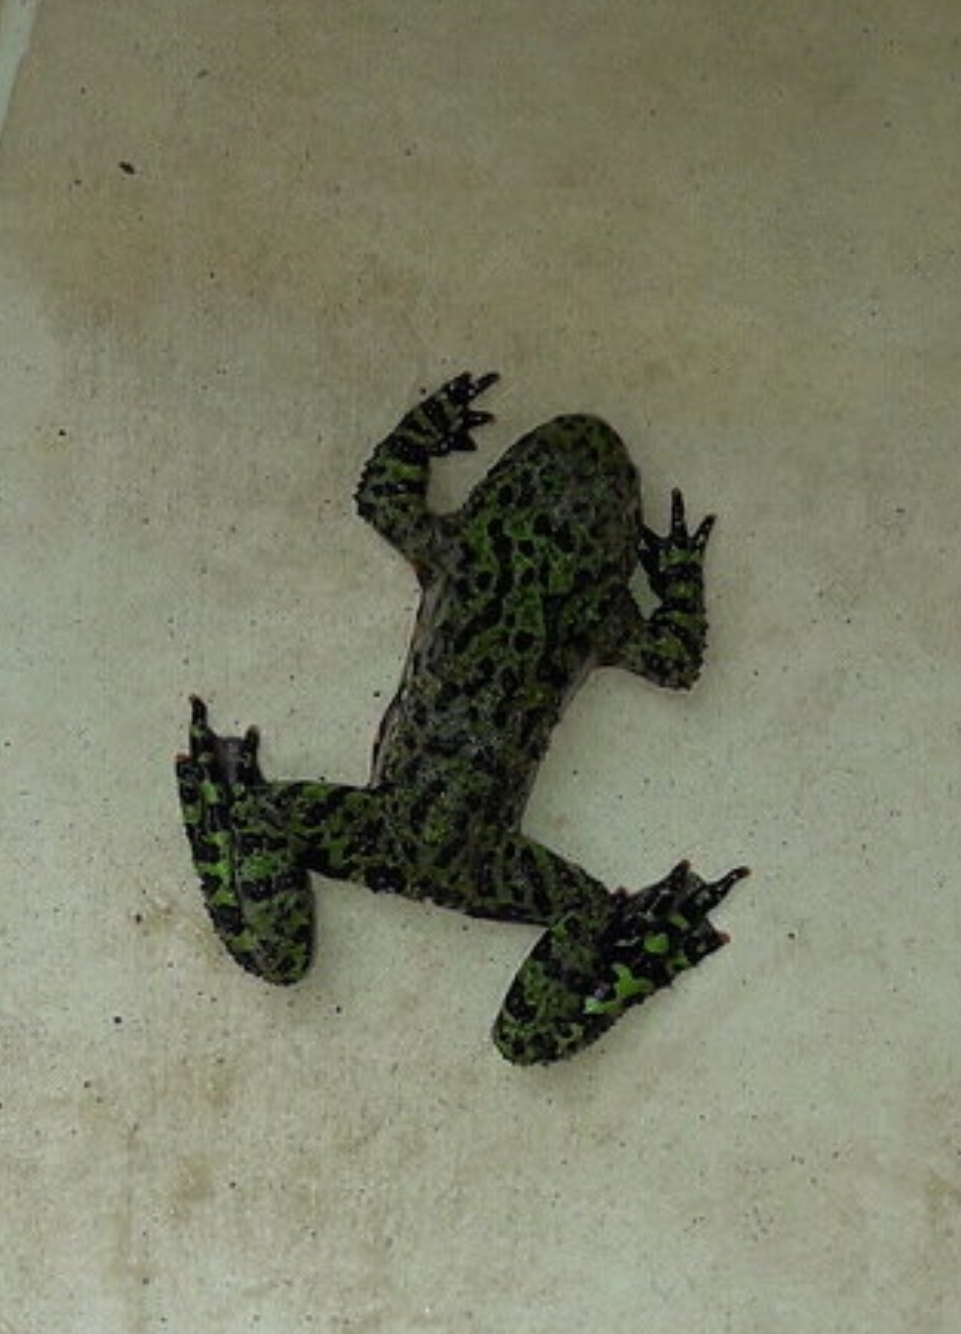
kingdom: Animalia
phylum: Chordata
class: Amphibia
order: Anura
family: Bombinatoridae
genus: Bombina
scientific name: Bombina orientalis
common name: Oriental firebelly toad
